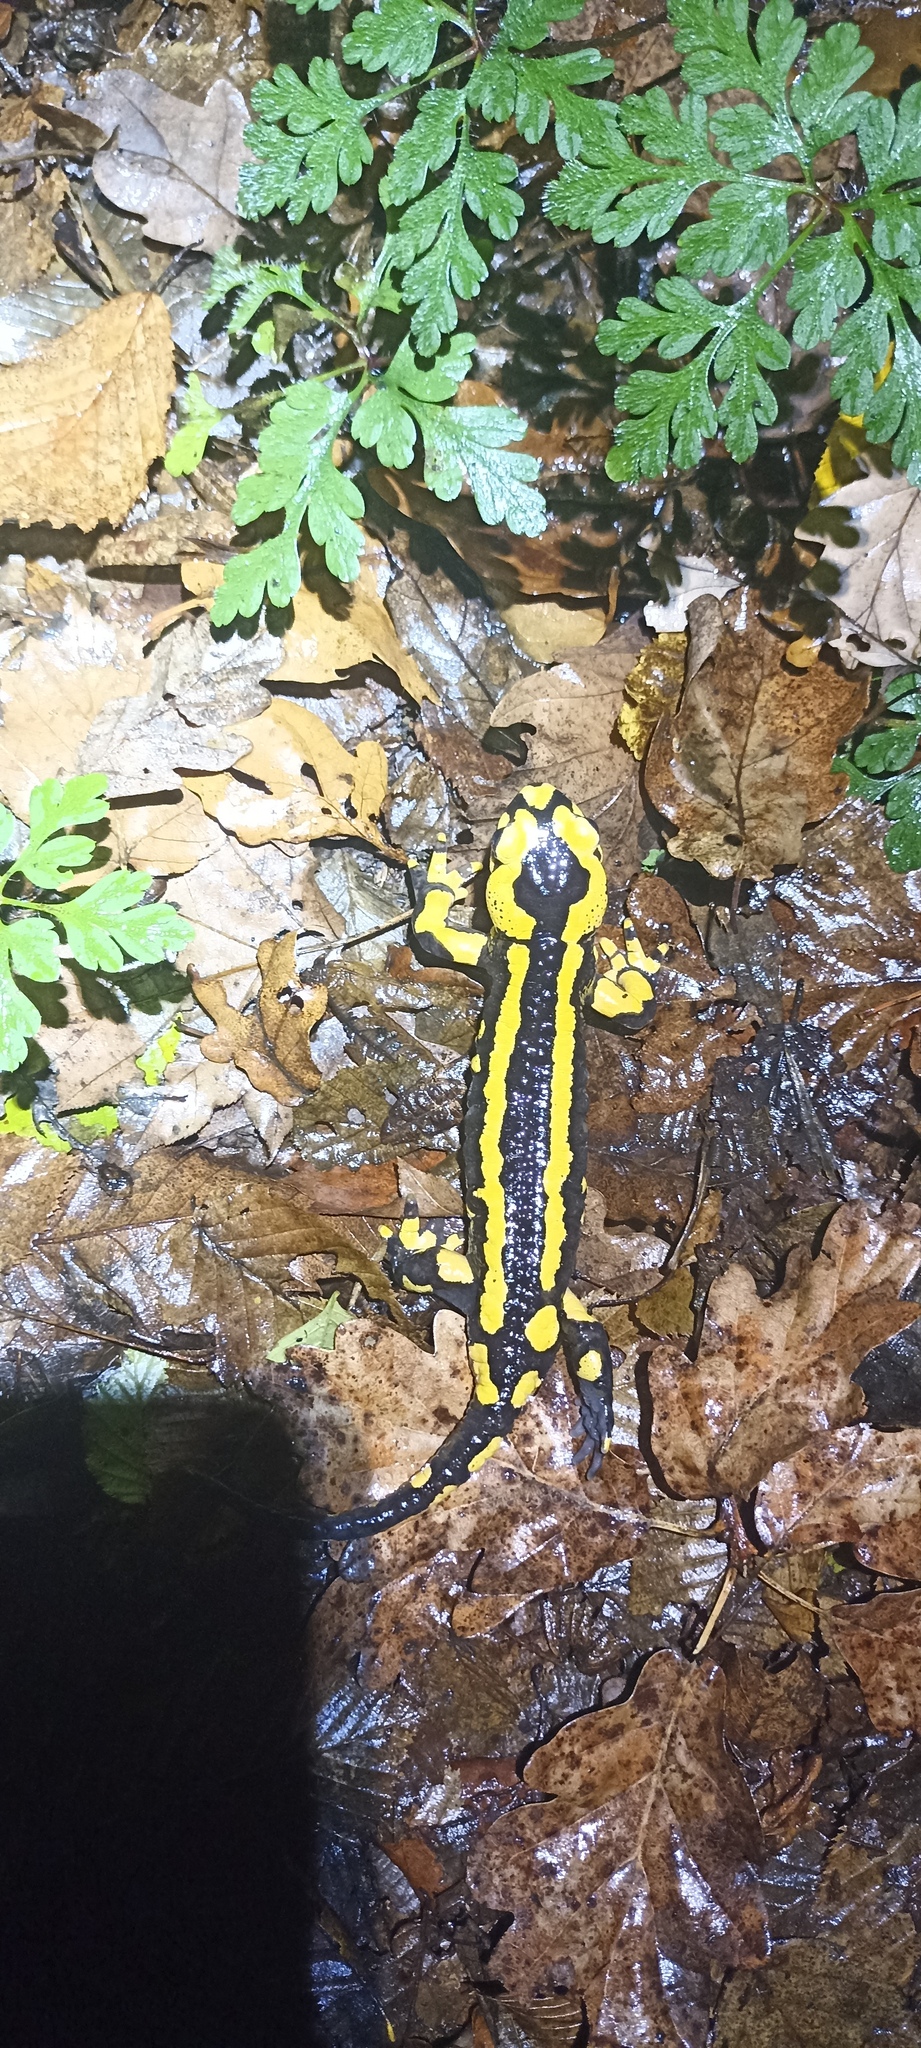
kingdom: Animalia
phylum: Chordata
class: Amphibia
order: Caudata
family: Salamandridae
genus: Salamandra
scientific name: Salamandra salamandra
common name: Fire salamander
